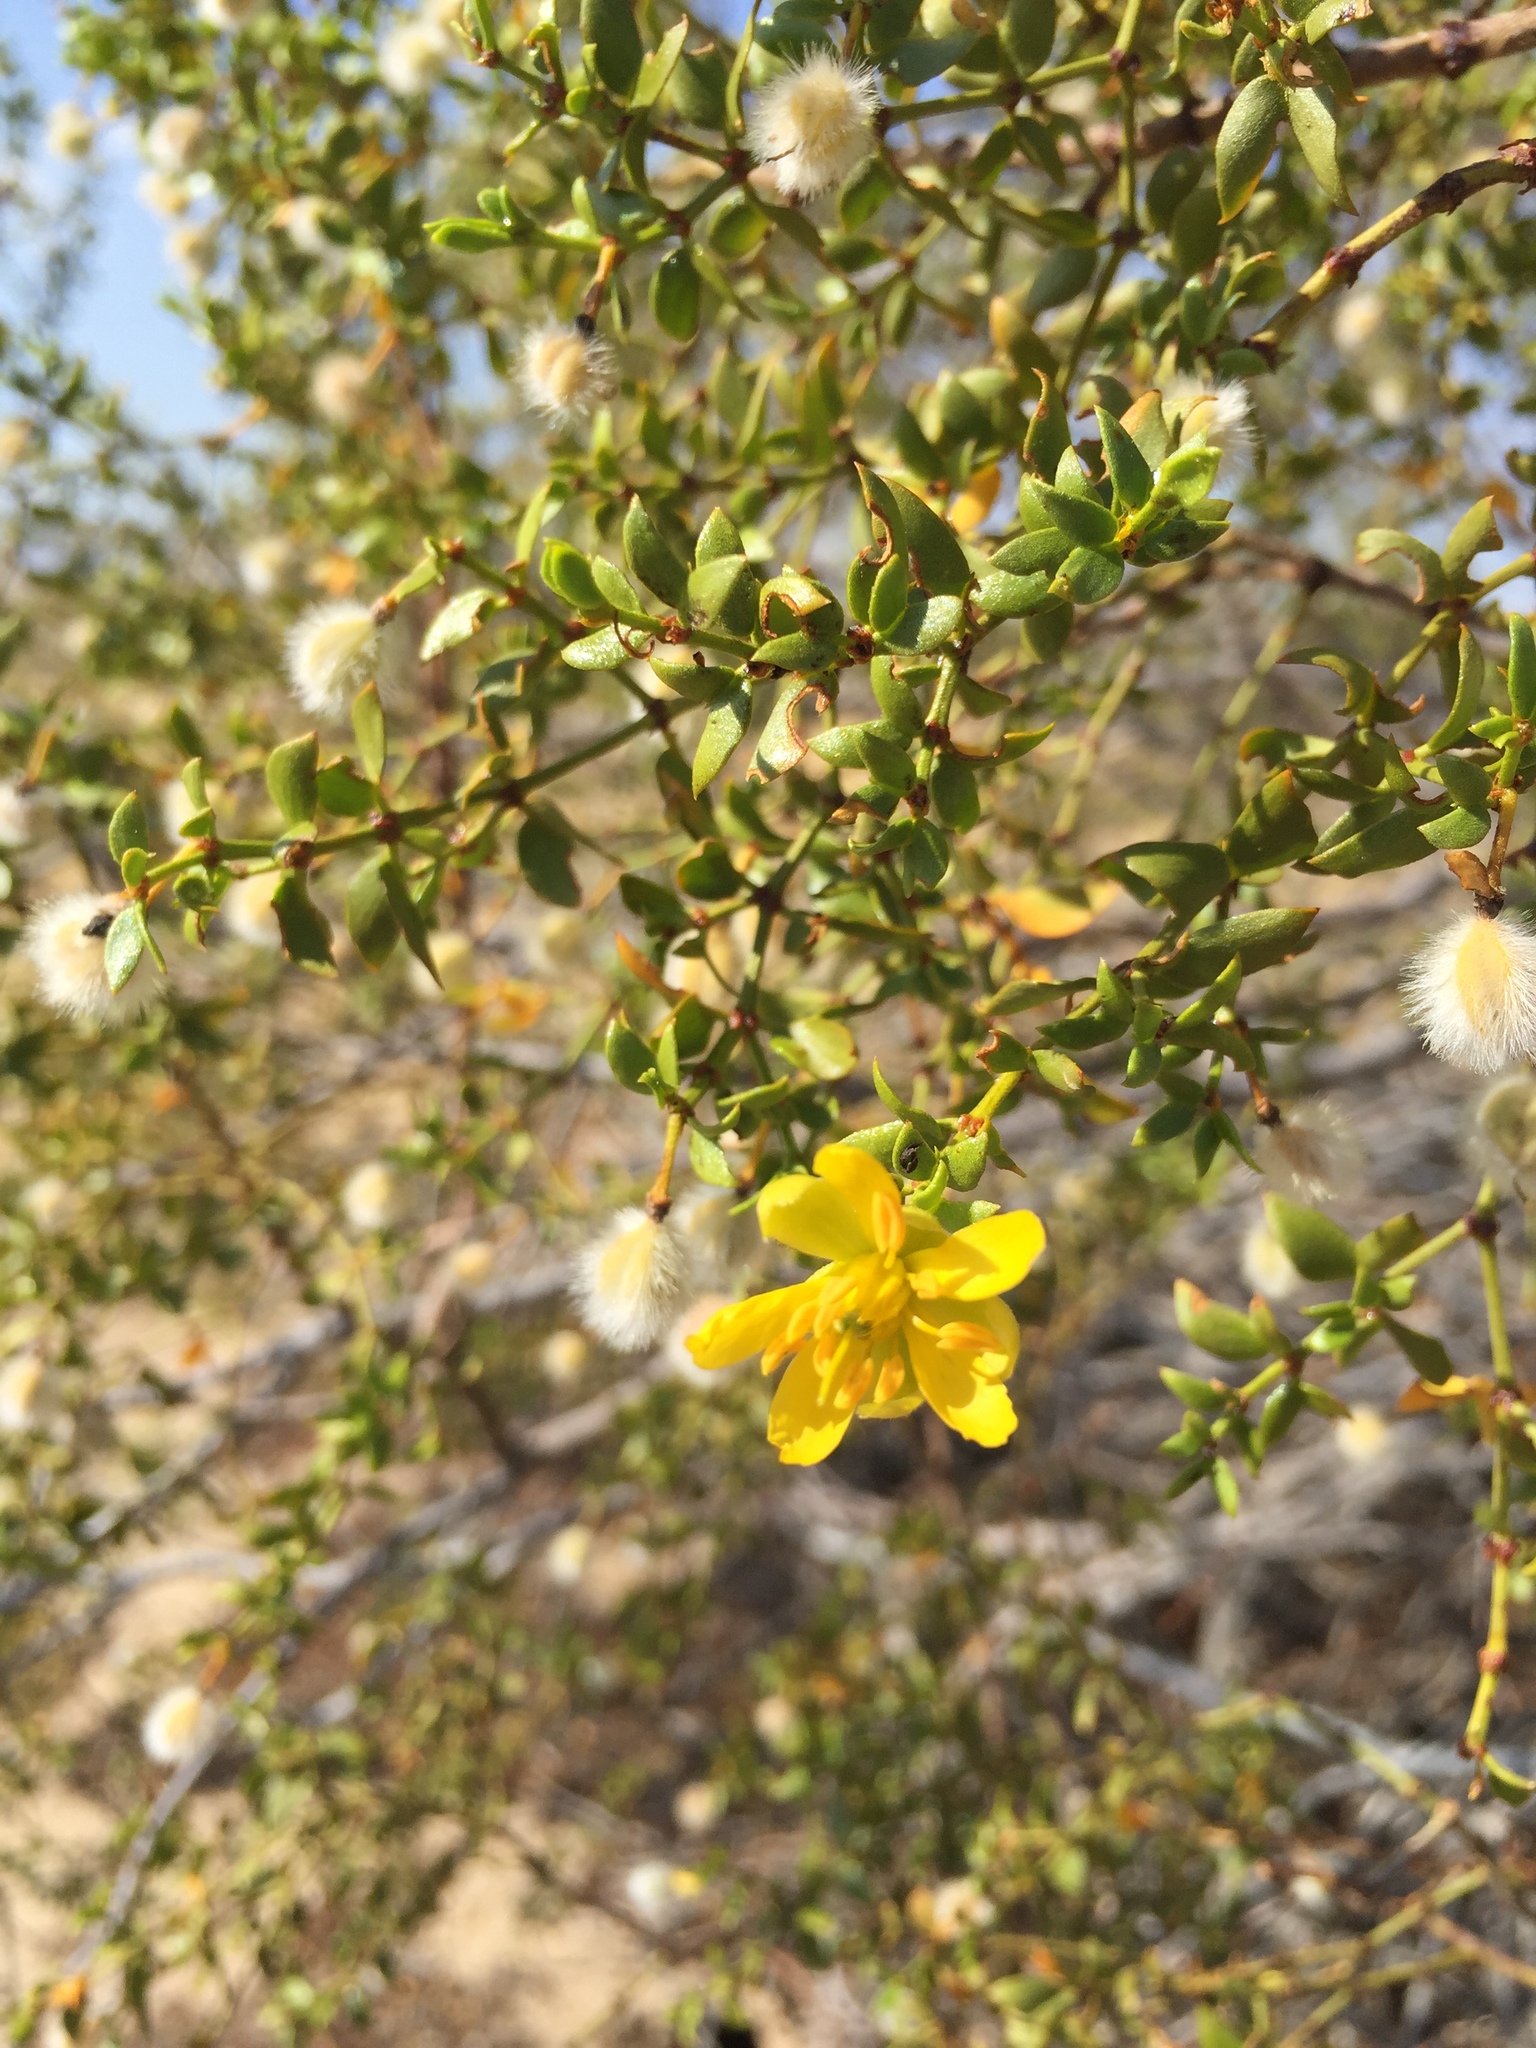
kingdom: Plantae
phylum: Tracheophyta
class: Magnoliopsida
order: Zygophyllales
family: Zygophyllaceae
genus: Larrea
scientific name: Larrea tridentata
